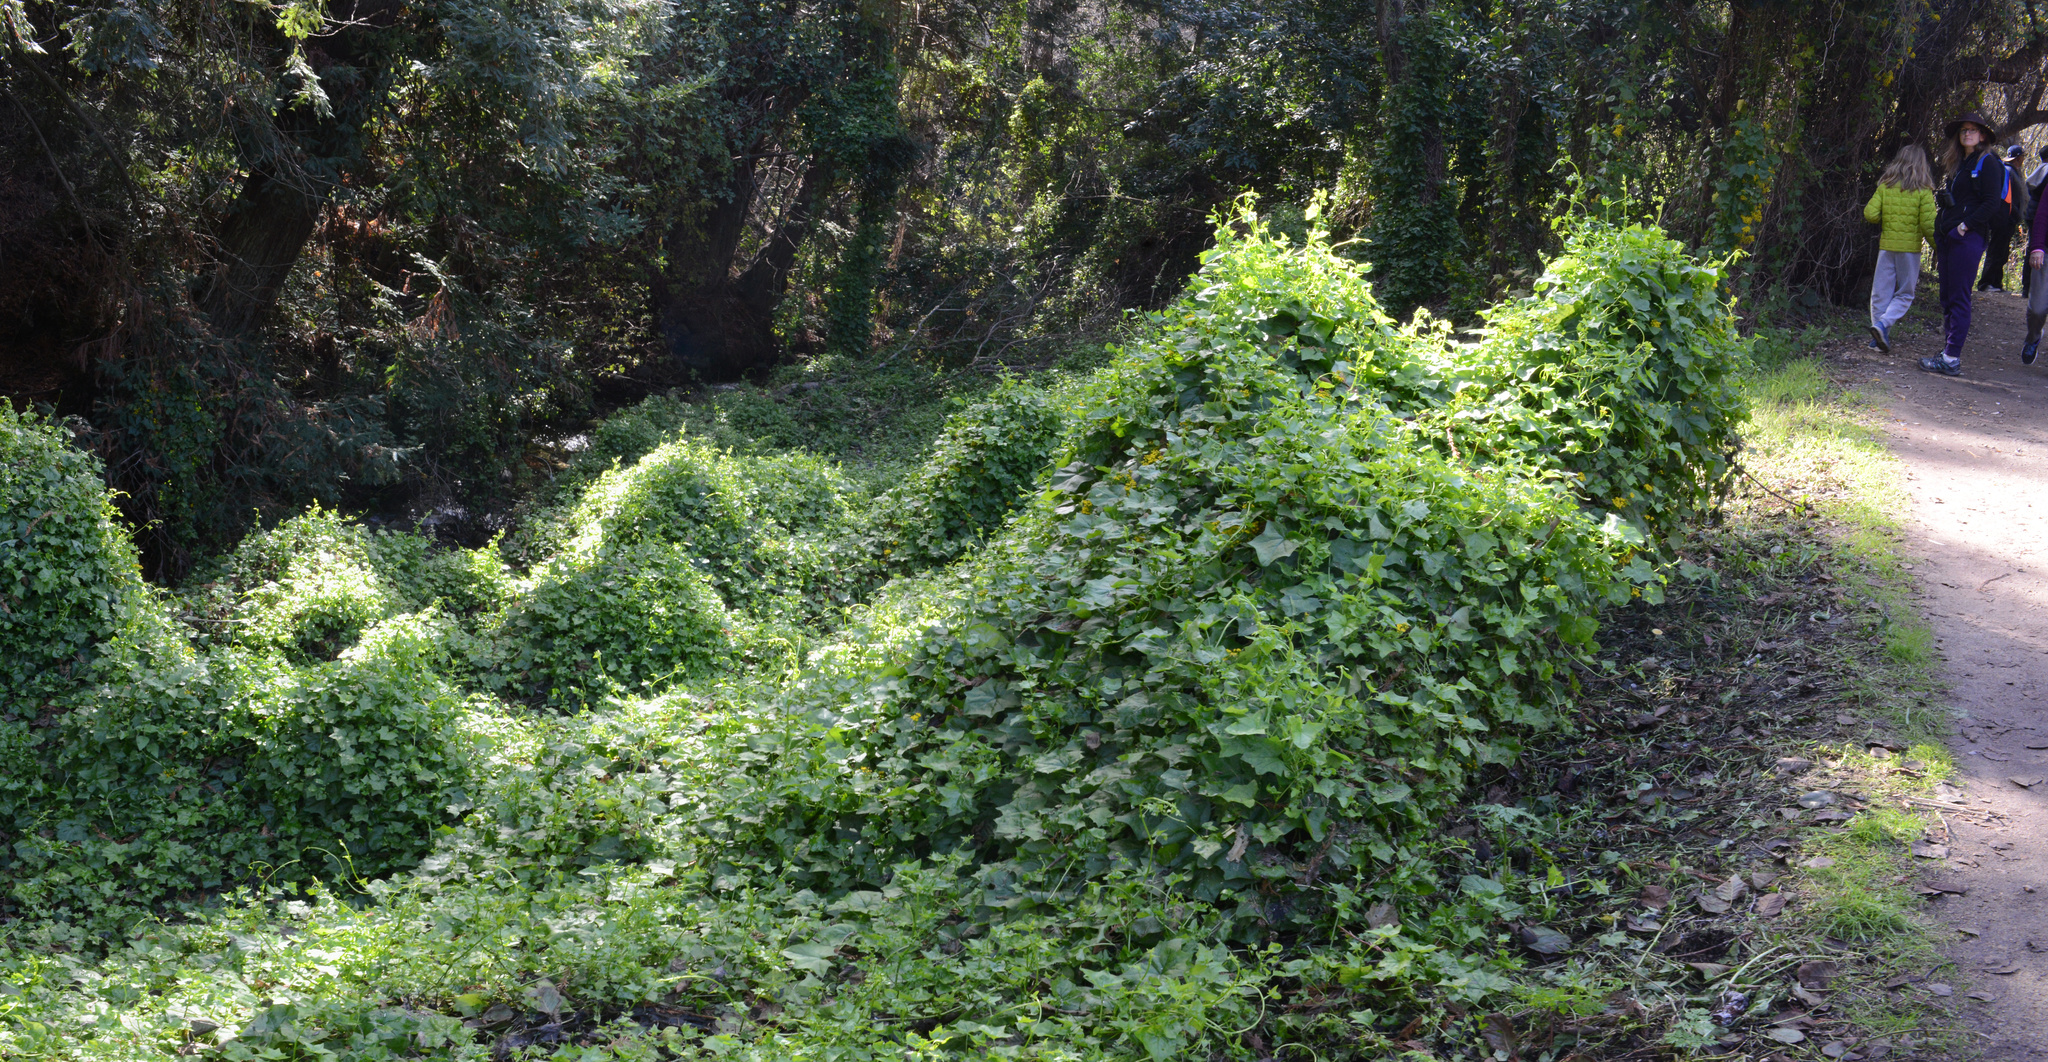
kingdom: Plantae
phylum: Tracheophyta
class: Magnoliopsida
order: Asterales
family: Asteraceae
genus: Delairea
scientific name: Delairea odorata
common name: Cape-ivy
